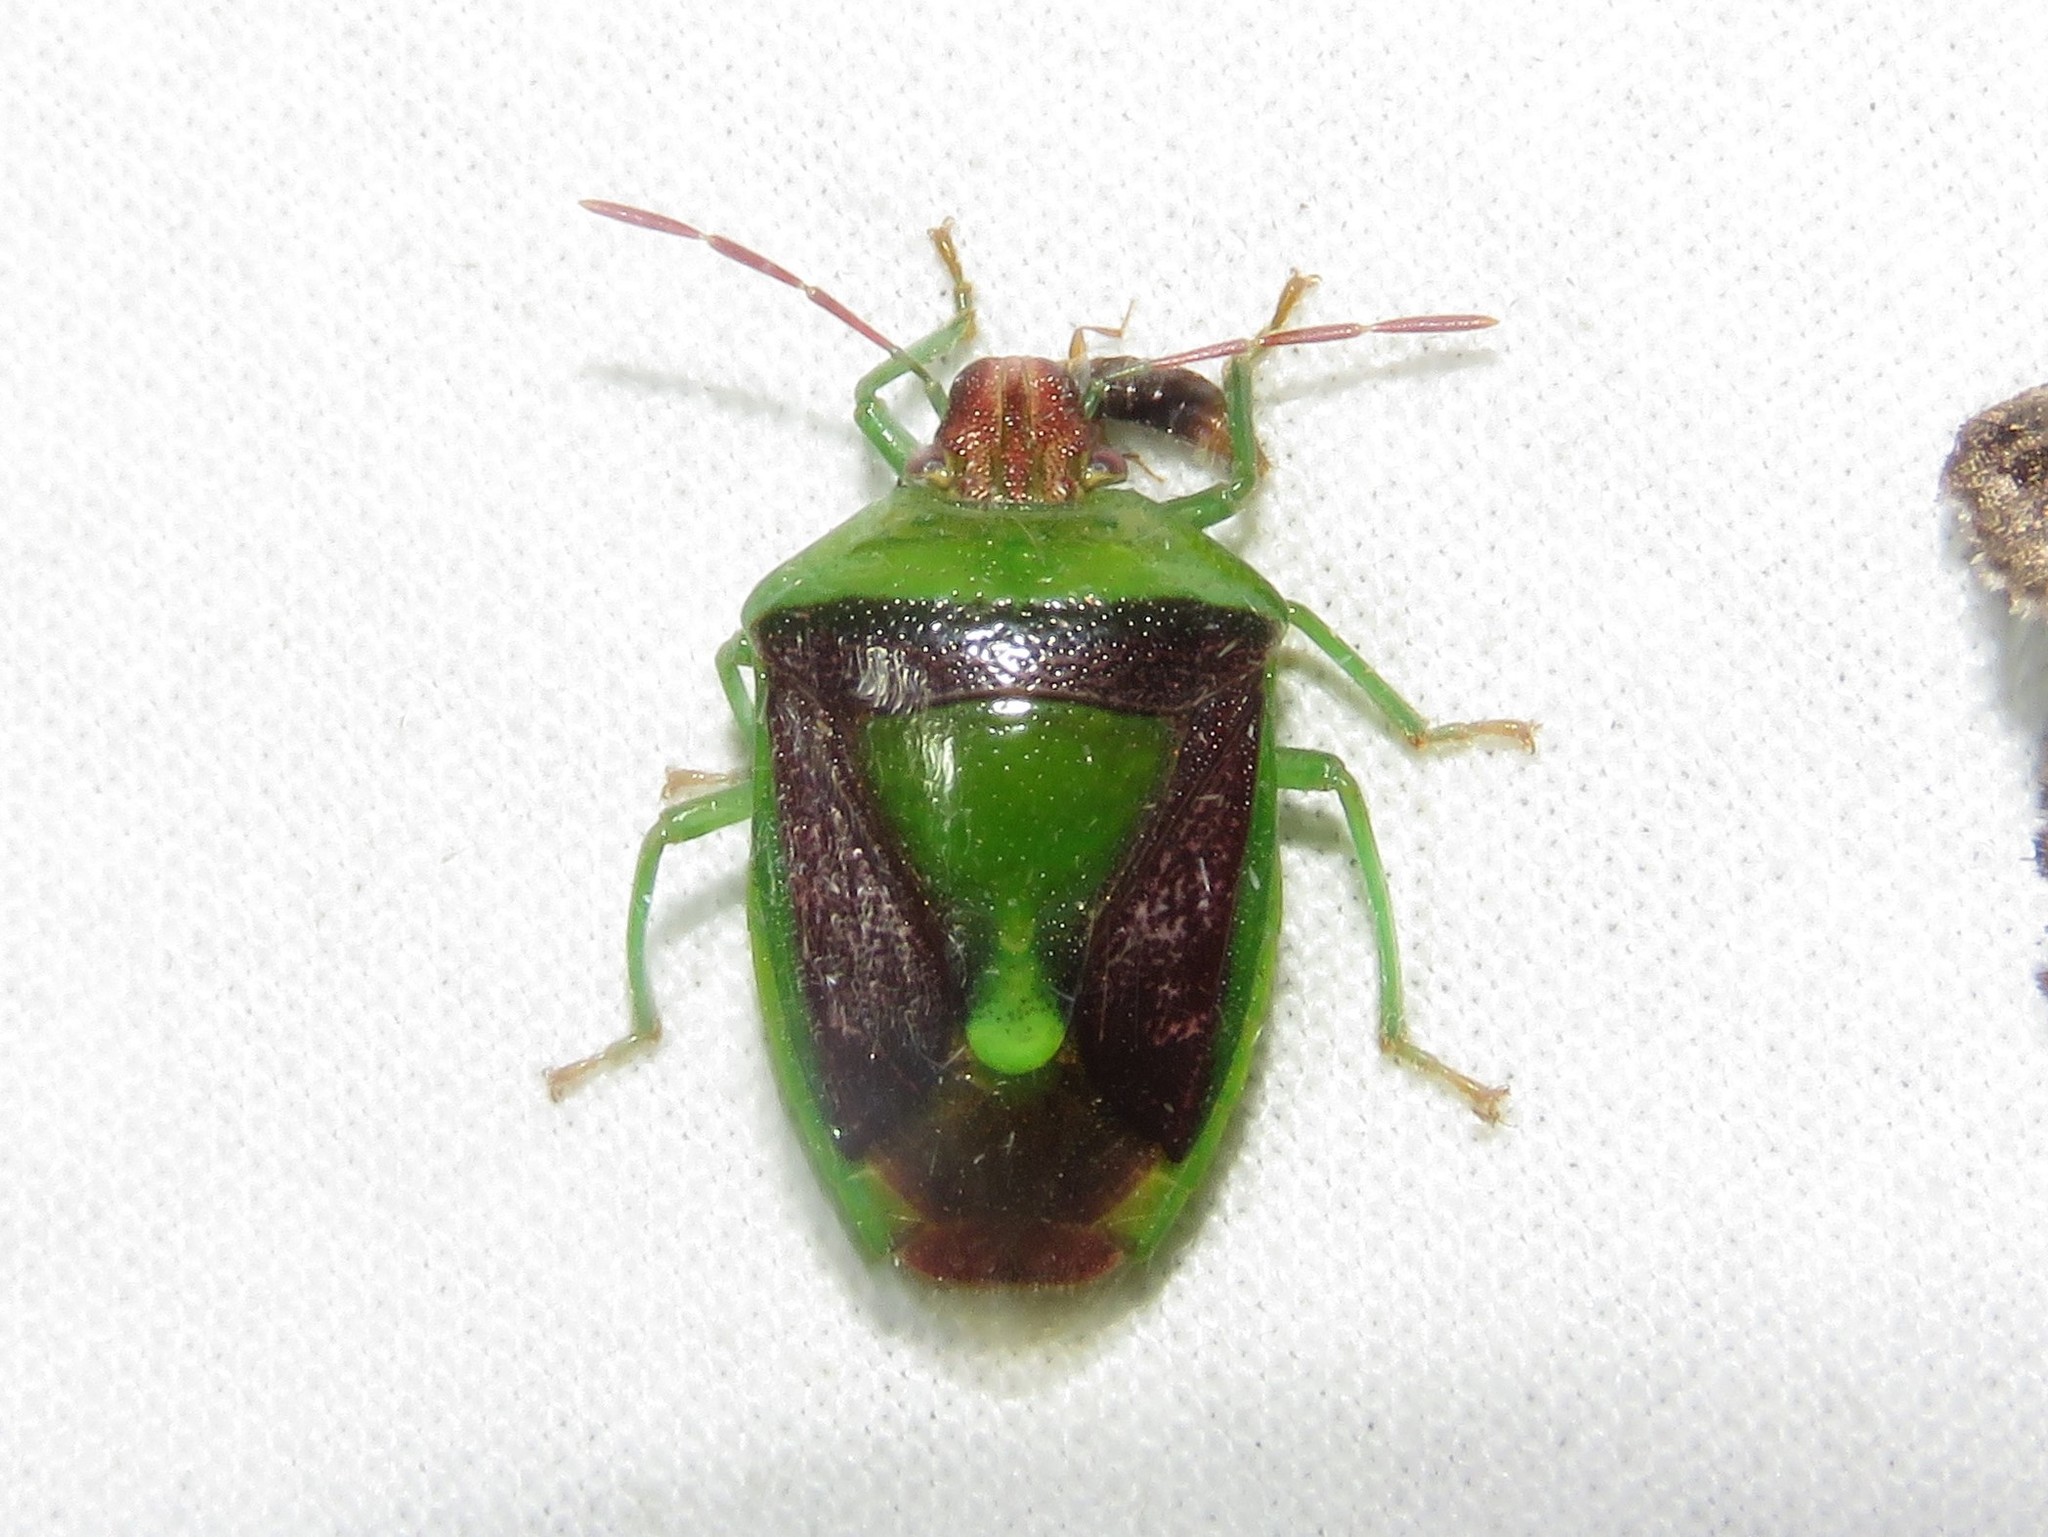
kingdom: Animalia
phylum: Arthropoda
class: Insecta
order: Hemiptera
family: Pentatomidae
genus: Banasa
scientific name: Banasa dimidiata
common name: Green burgundy stink bug
